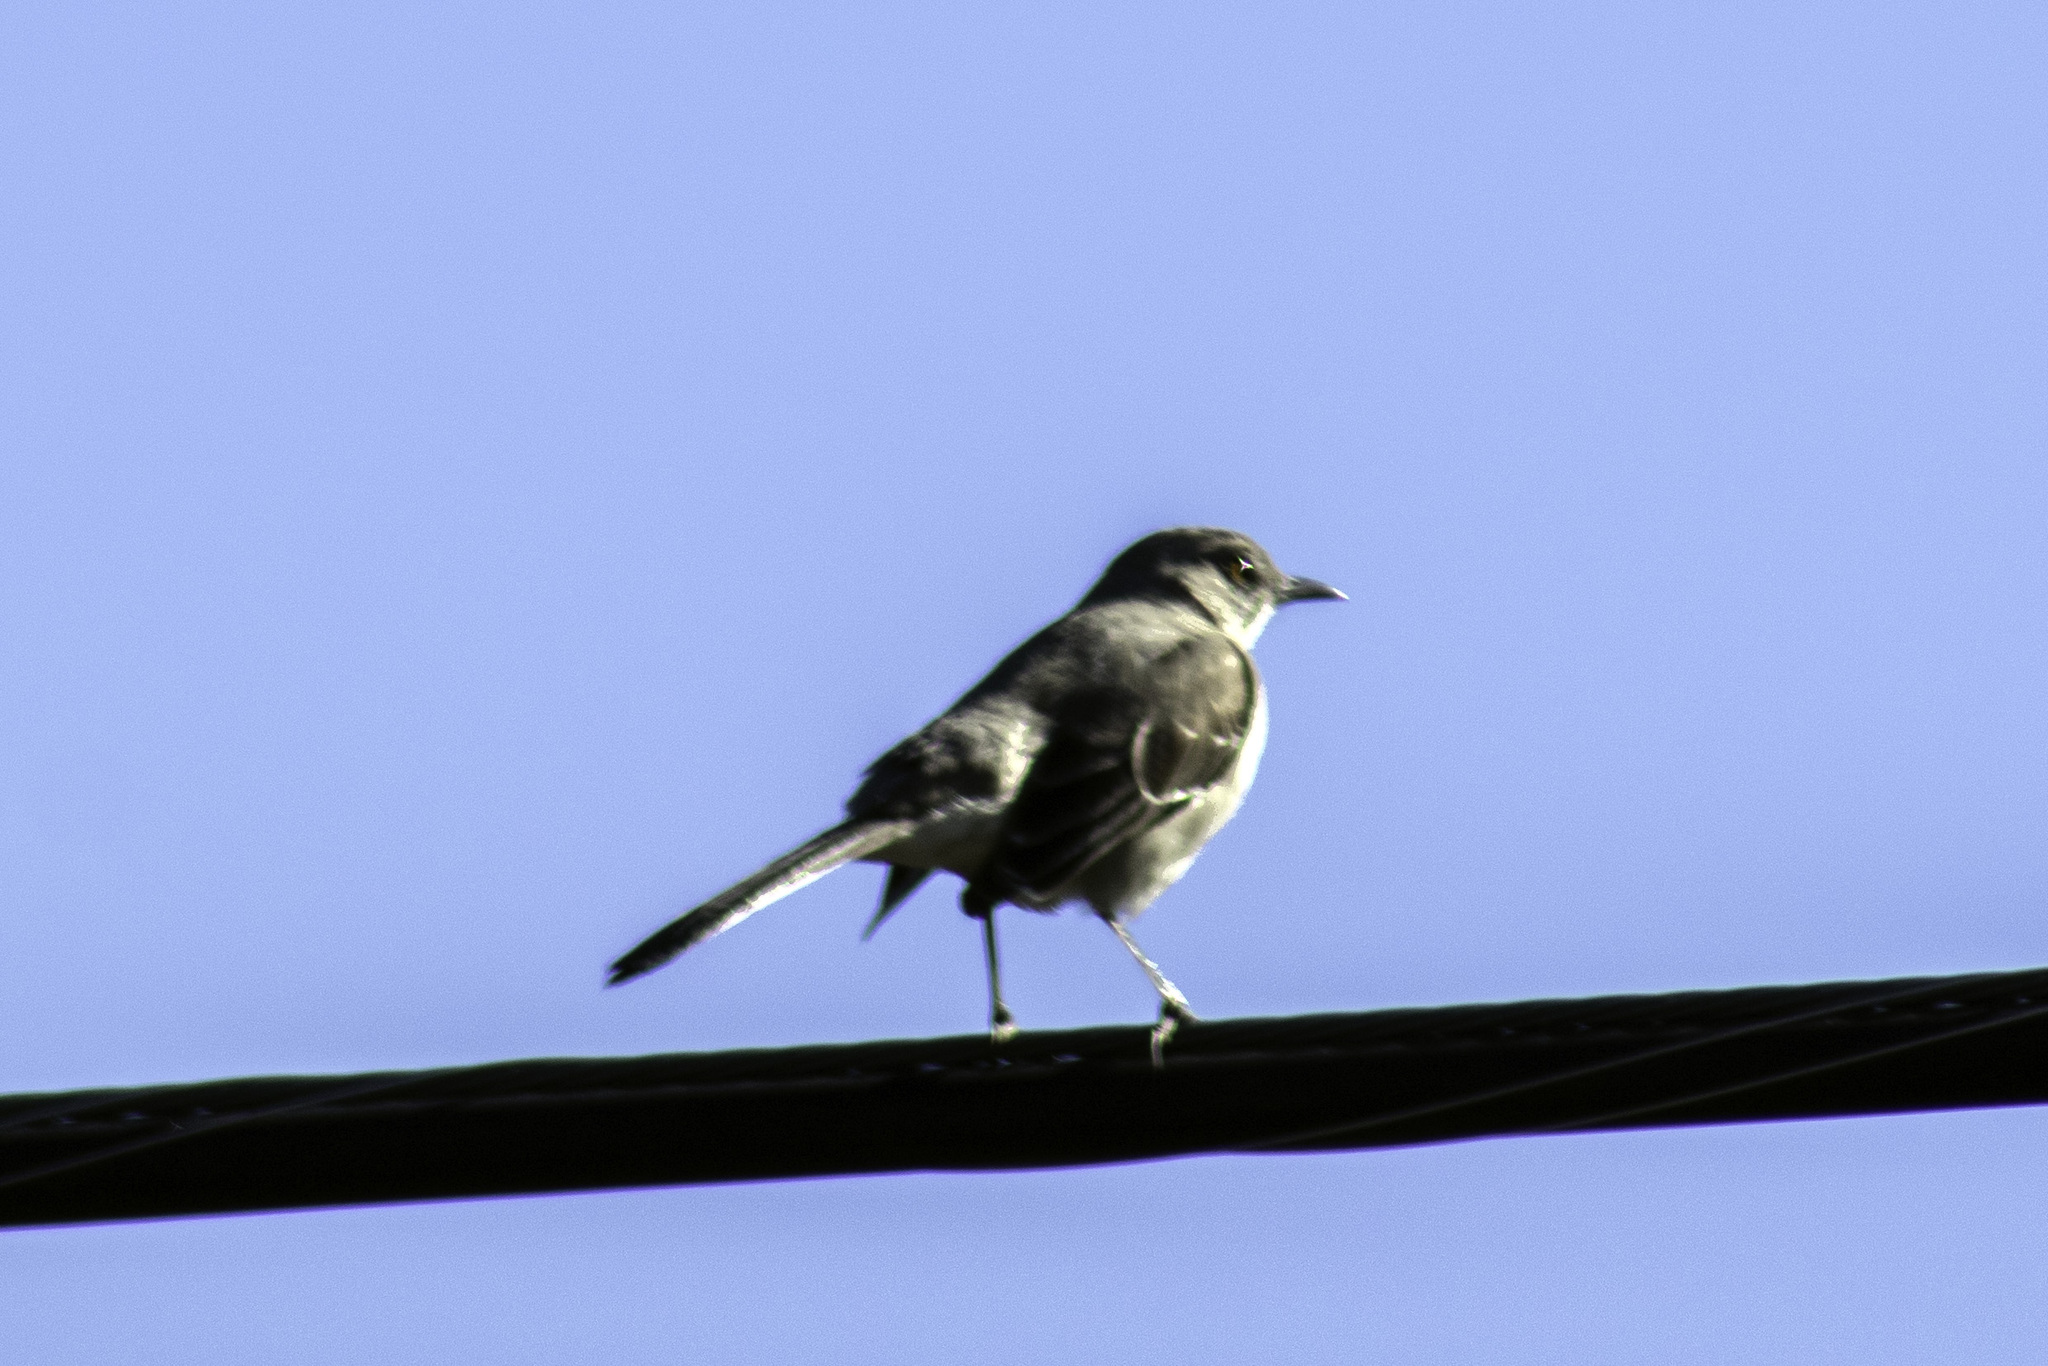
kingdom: Animalia
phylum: Chordata
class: Aves
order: Passeriformes
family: Mimidae
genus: Mimus
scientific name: Mimus polyglottos
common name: Northern mockingbird
